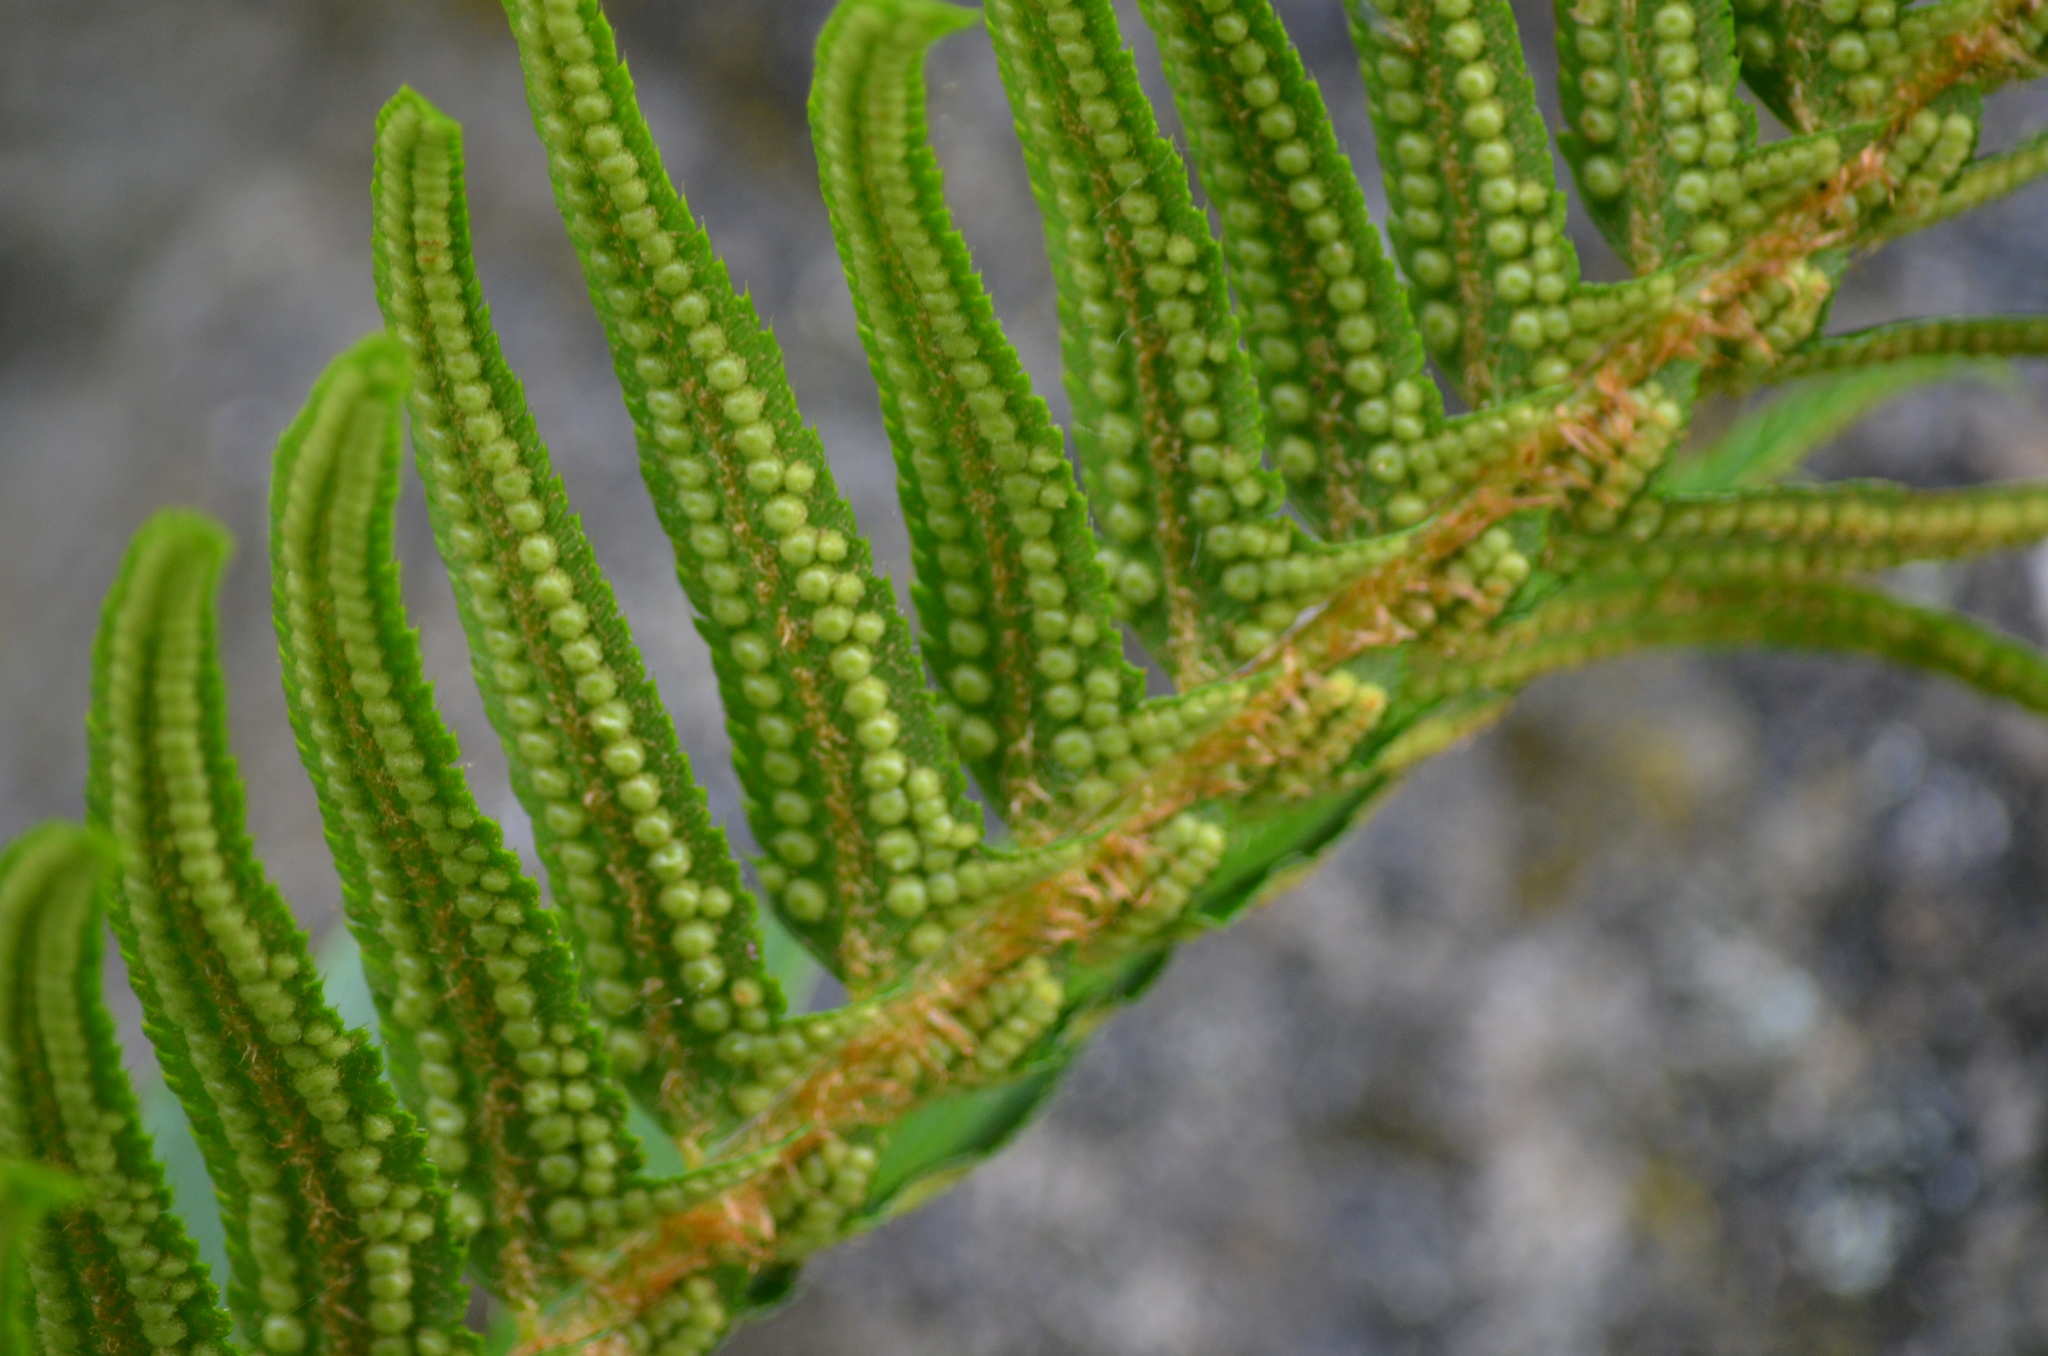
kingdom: Plantae
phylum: Tracheophyta
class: Polypodiopsida
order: Polypodiales
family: Dryopteridaceae
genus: Polystichum
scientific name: Polystichum munitum
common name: Western sword-fern
